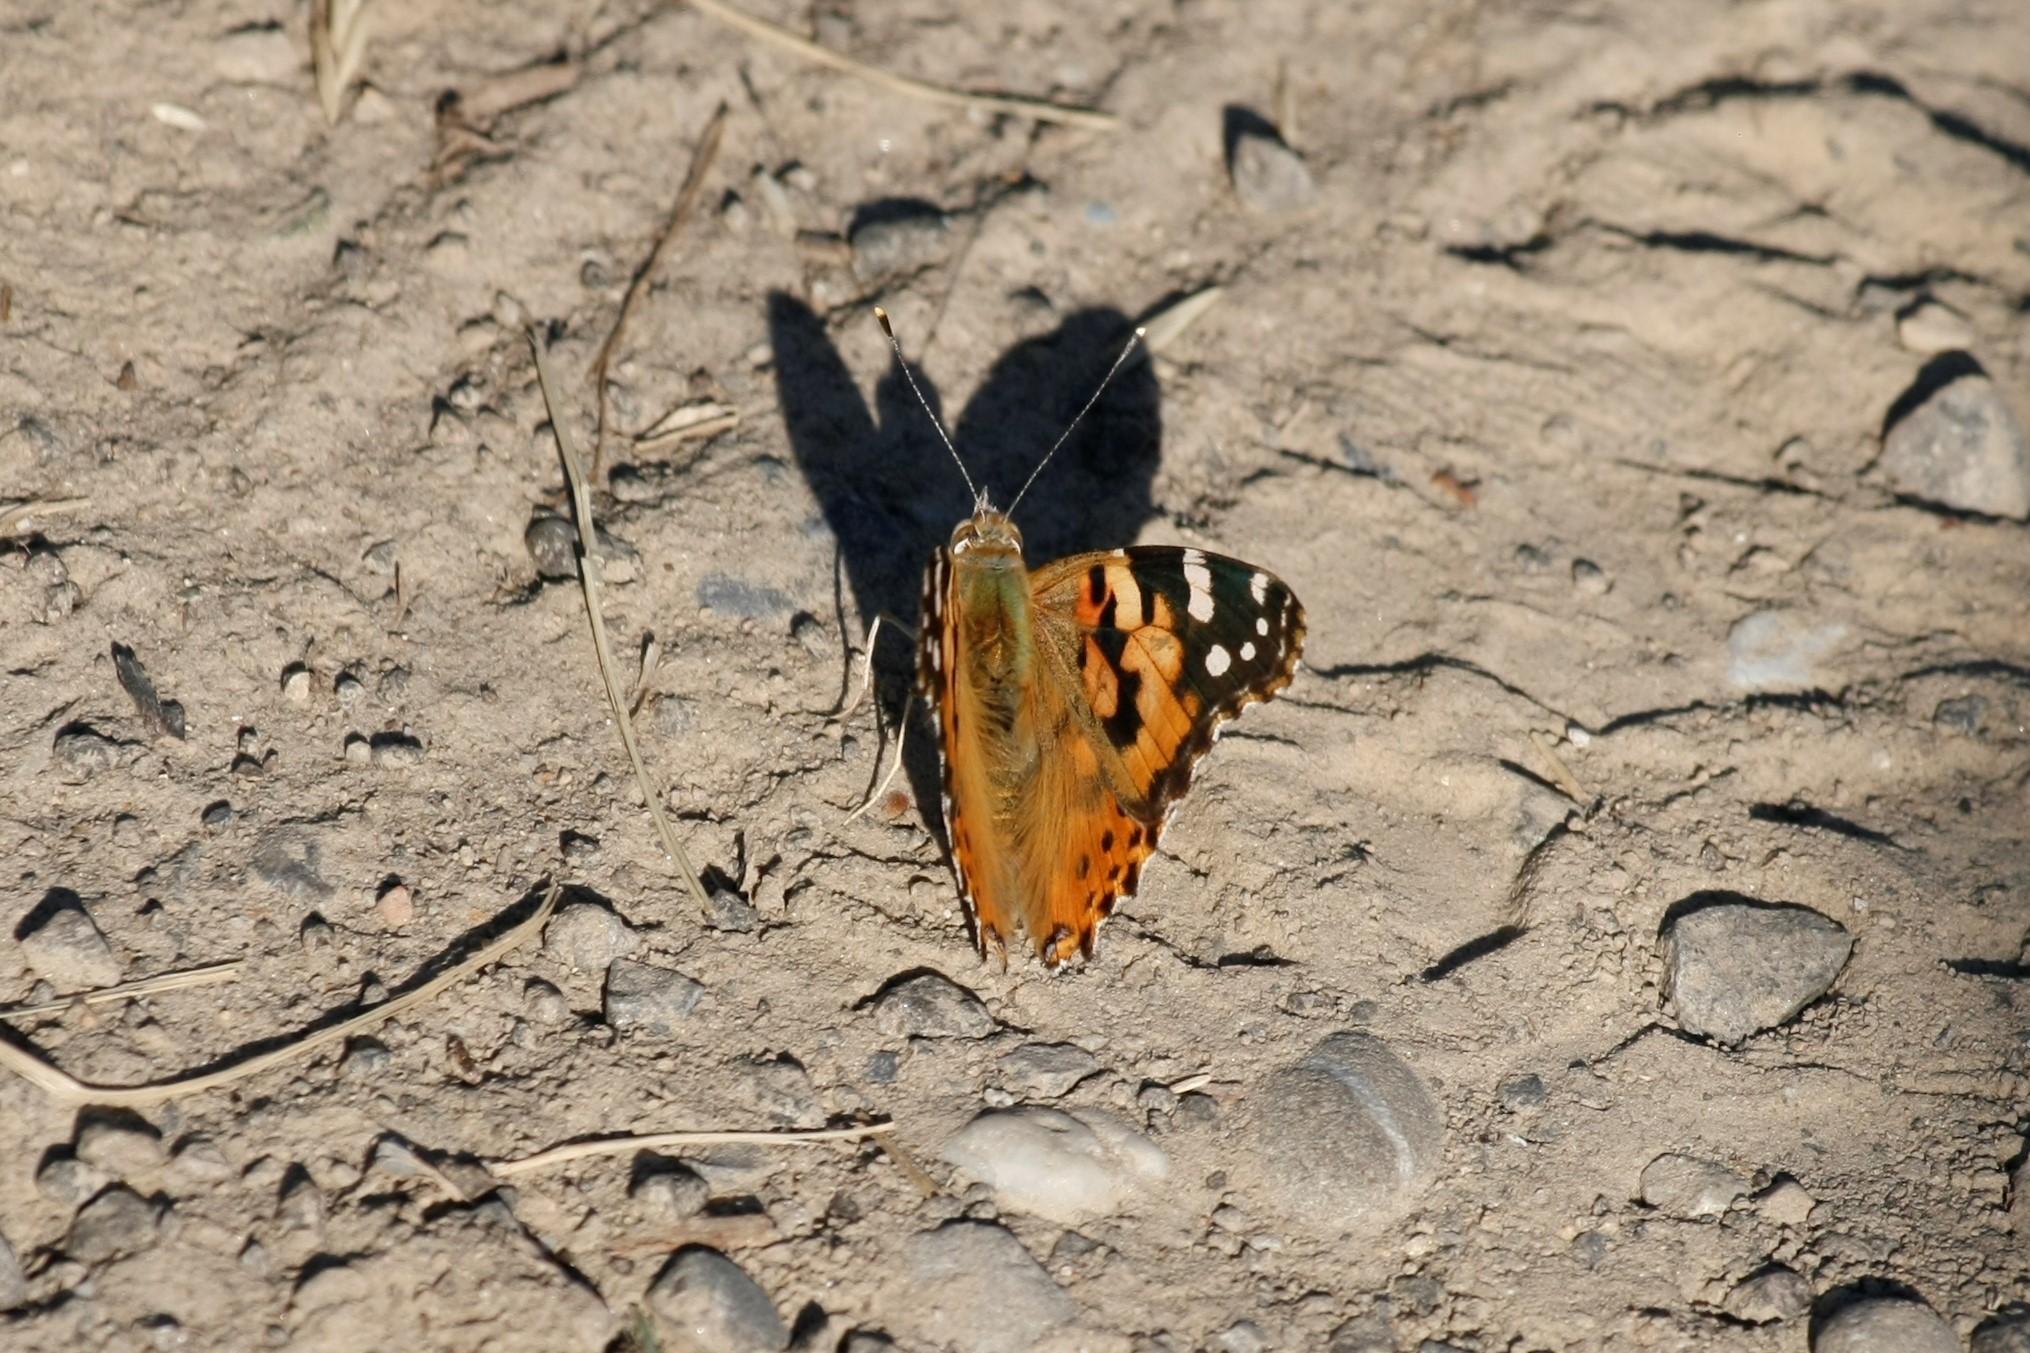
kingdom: Animalia
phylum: Arthropoda
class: Insecta
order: Lepidoptera
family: Nymphalidae
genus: Vanessa
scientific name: Vanessa cardui
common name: Painted lady
